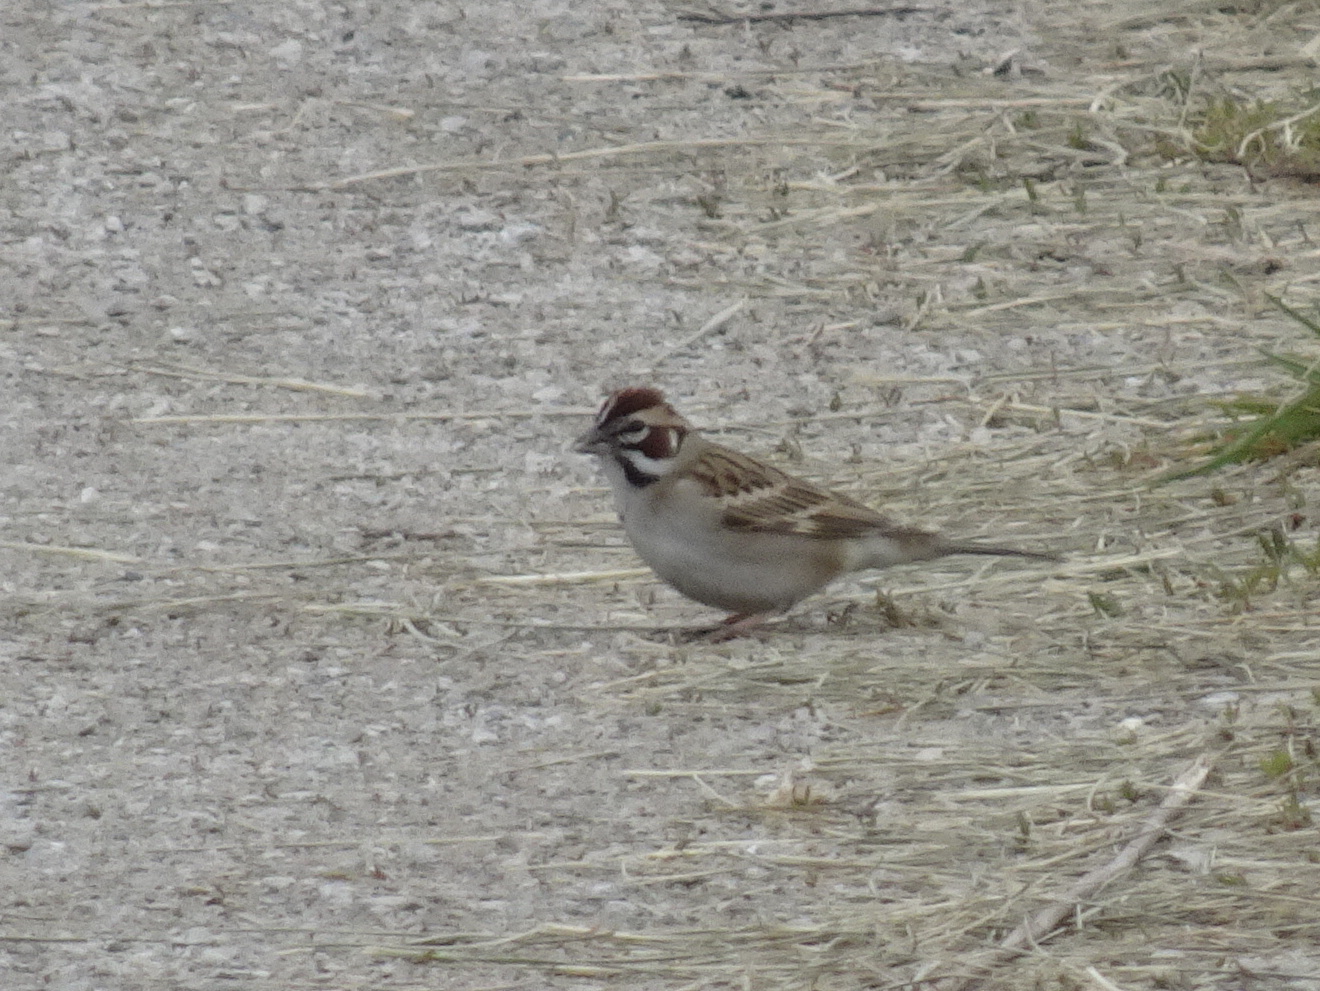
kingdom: Animalia
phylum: Chordata
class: Aves
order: Passeriformes
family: Passerellidae
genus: Chondestes
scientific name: Chondestes grammacus
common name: Lark sparrow
